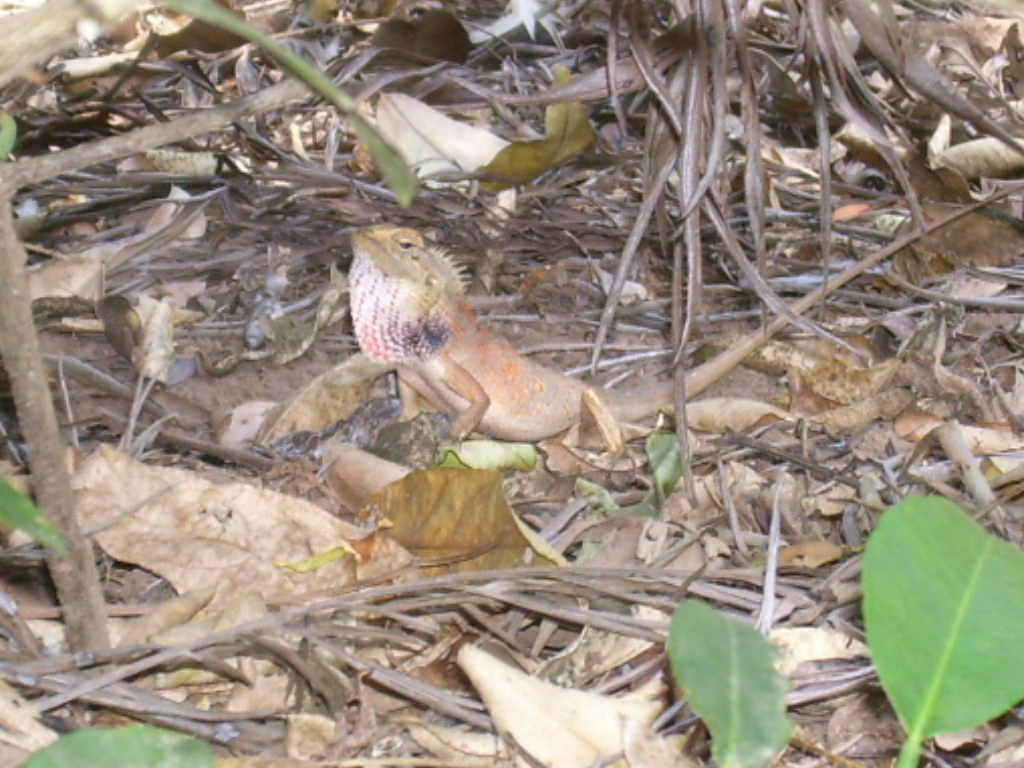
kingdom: Animalia
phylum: Chordata
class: Squamata
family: Agamidae
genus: Calotes
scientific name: Calotes versicolor
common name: Oriental garden lizard
